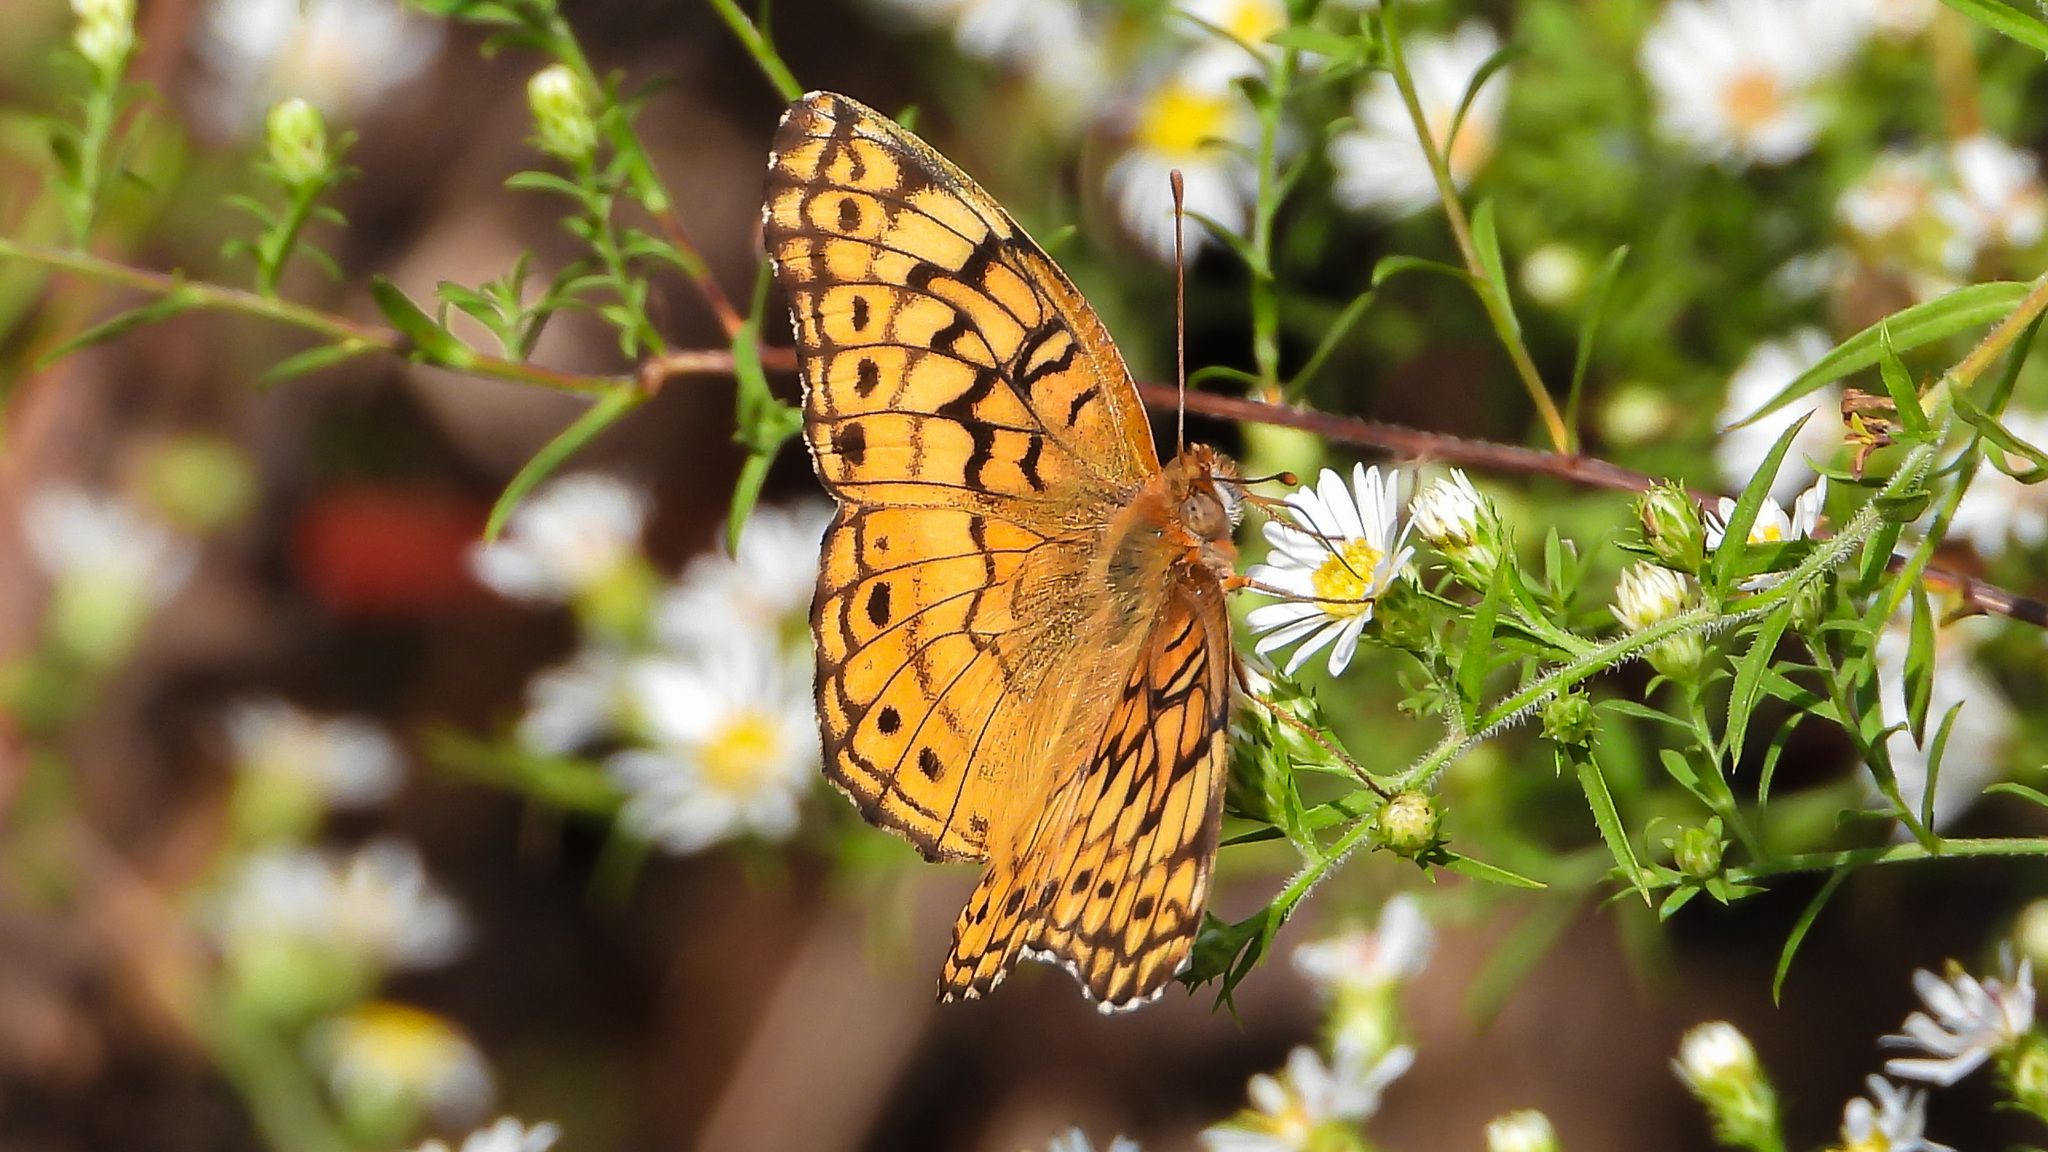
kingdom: Animalia
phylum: Arthropoda
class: Insecta
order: Lepidoptera
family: Nymphalidae
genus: Euptoieta
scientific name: Euptoieta claudia
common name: Variegated fritillary
